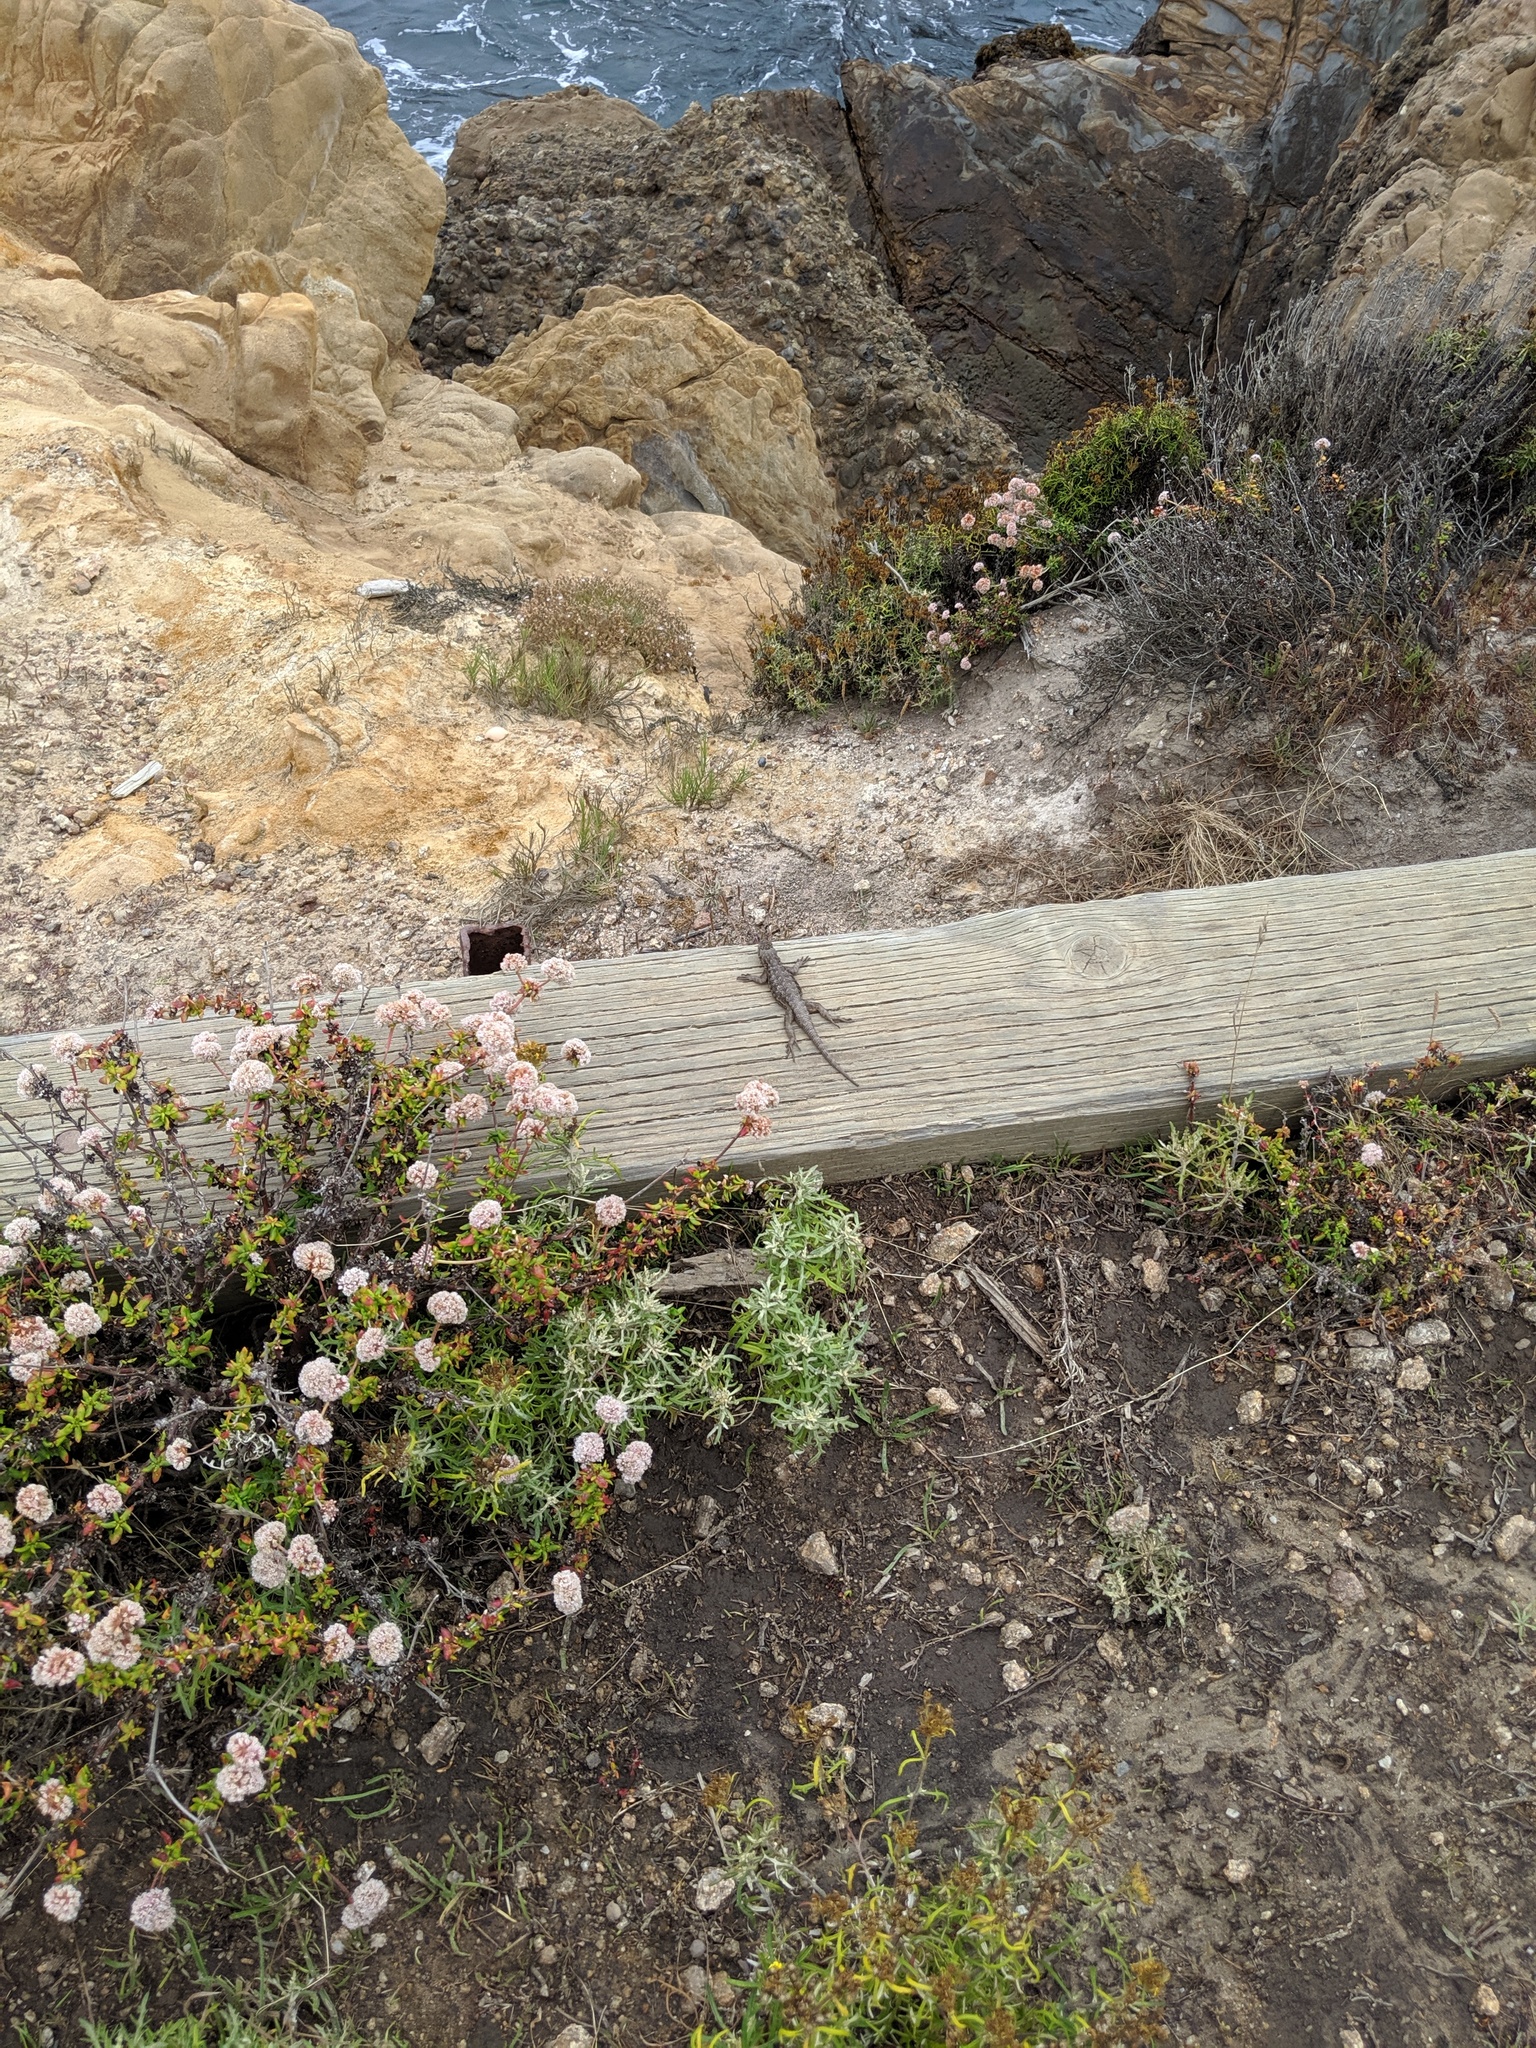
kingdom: Animalia
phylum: Chordata
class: Squamata
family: Phrynosomatidae
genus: Sceloporus
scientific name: Sceloporus occidentalis
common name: Western fence lizard
